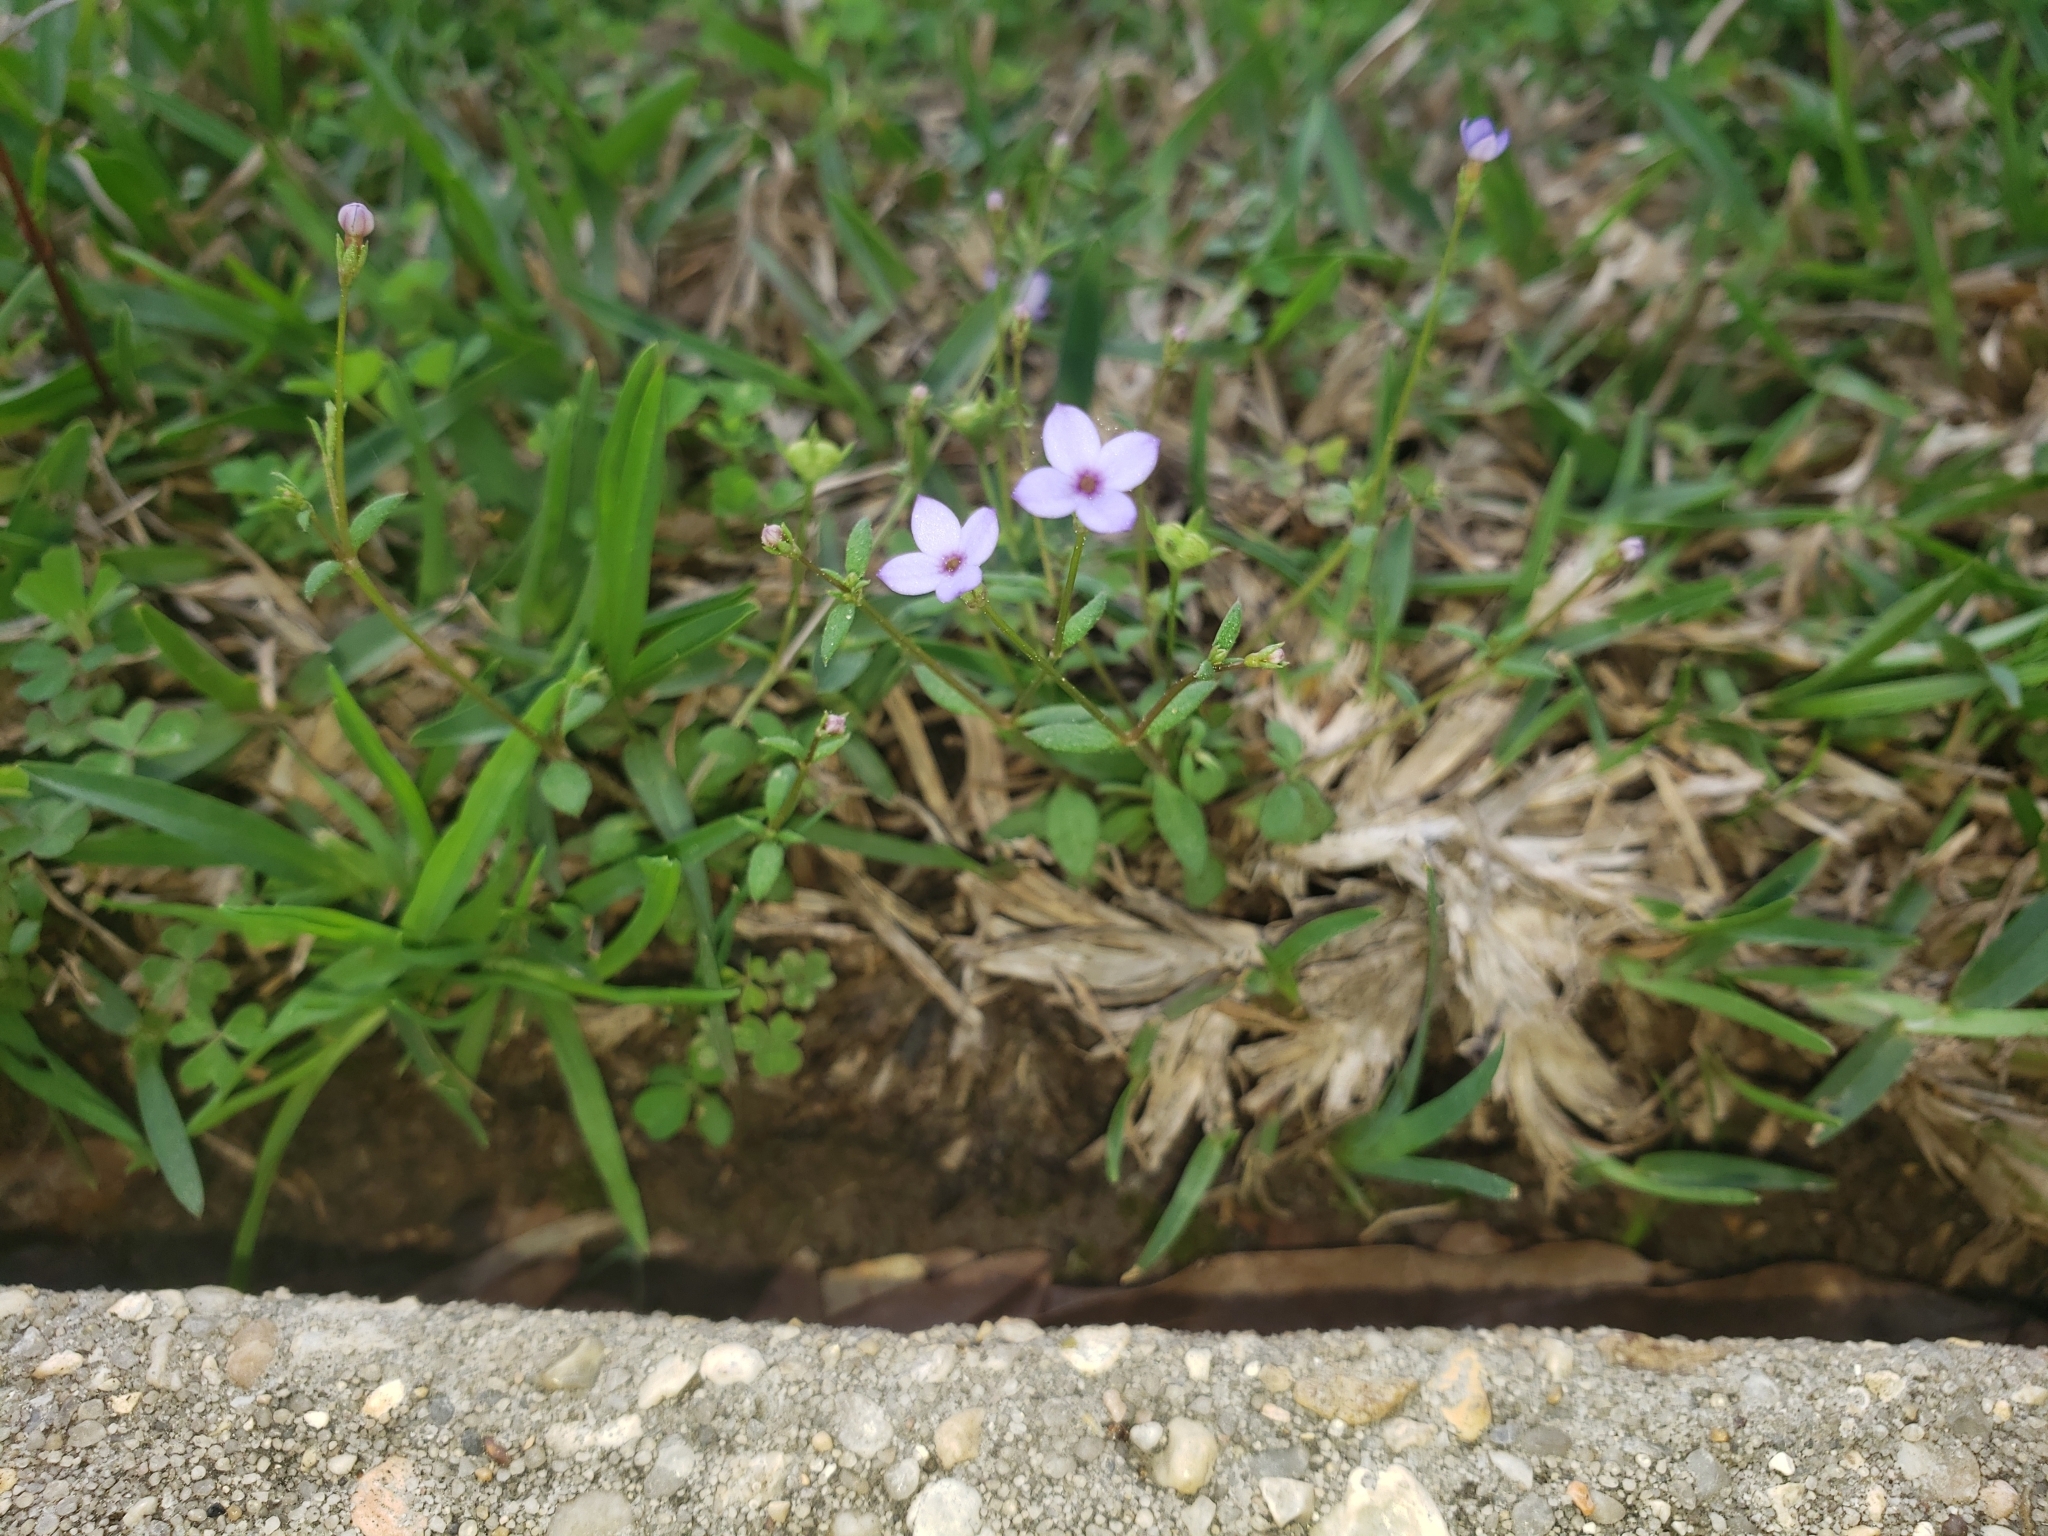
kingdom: Plantae
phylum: Tracheophyta
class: Magnoliopsida
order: Gentianales
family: Rubiaceae
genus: Houstonia
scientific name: Houstonia pusilla
